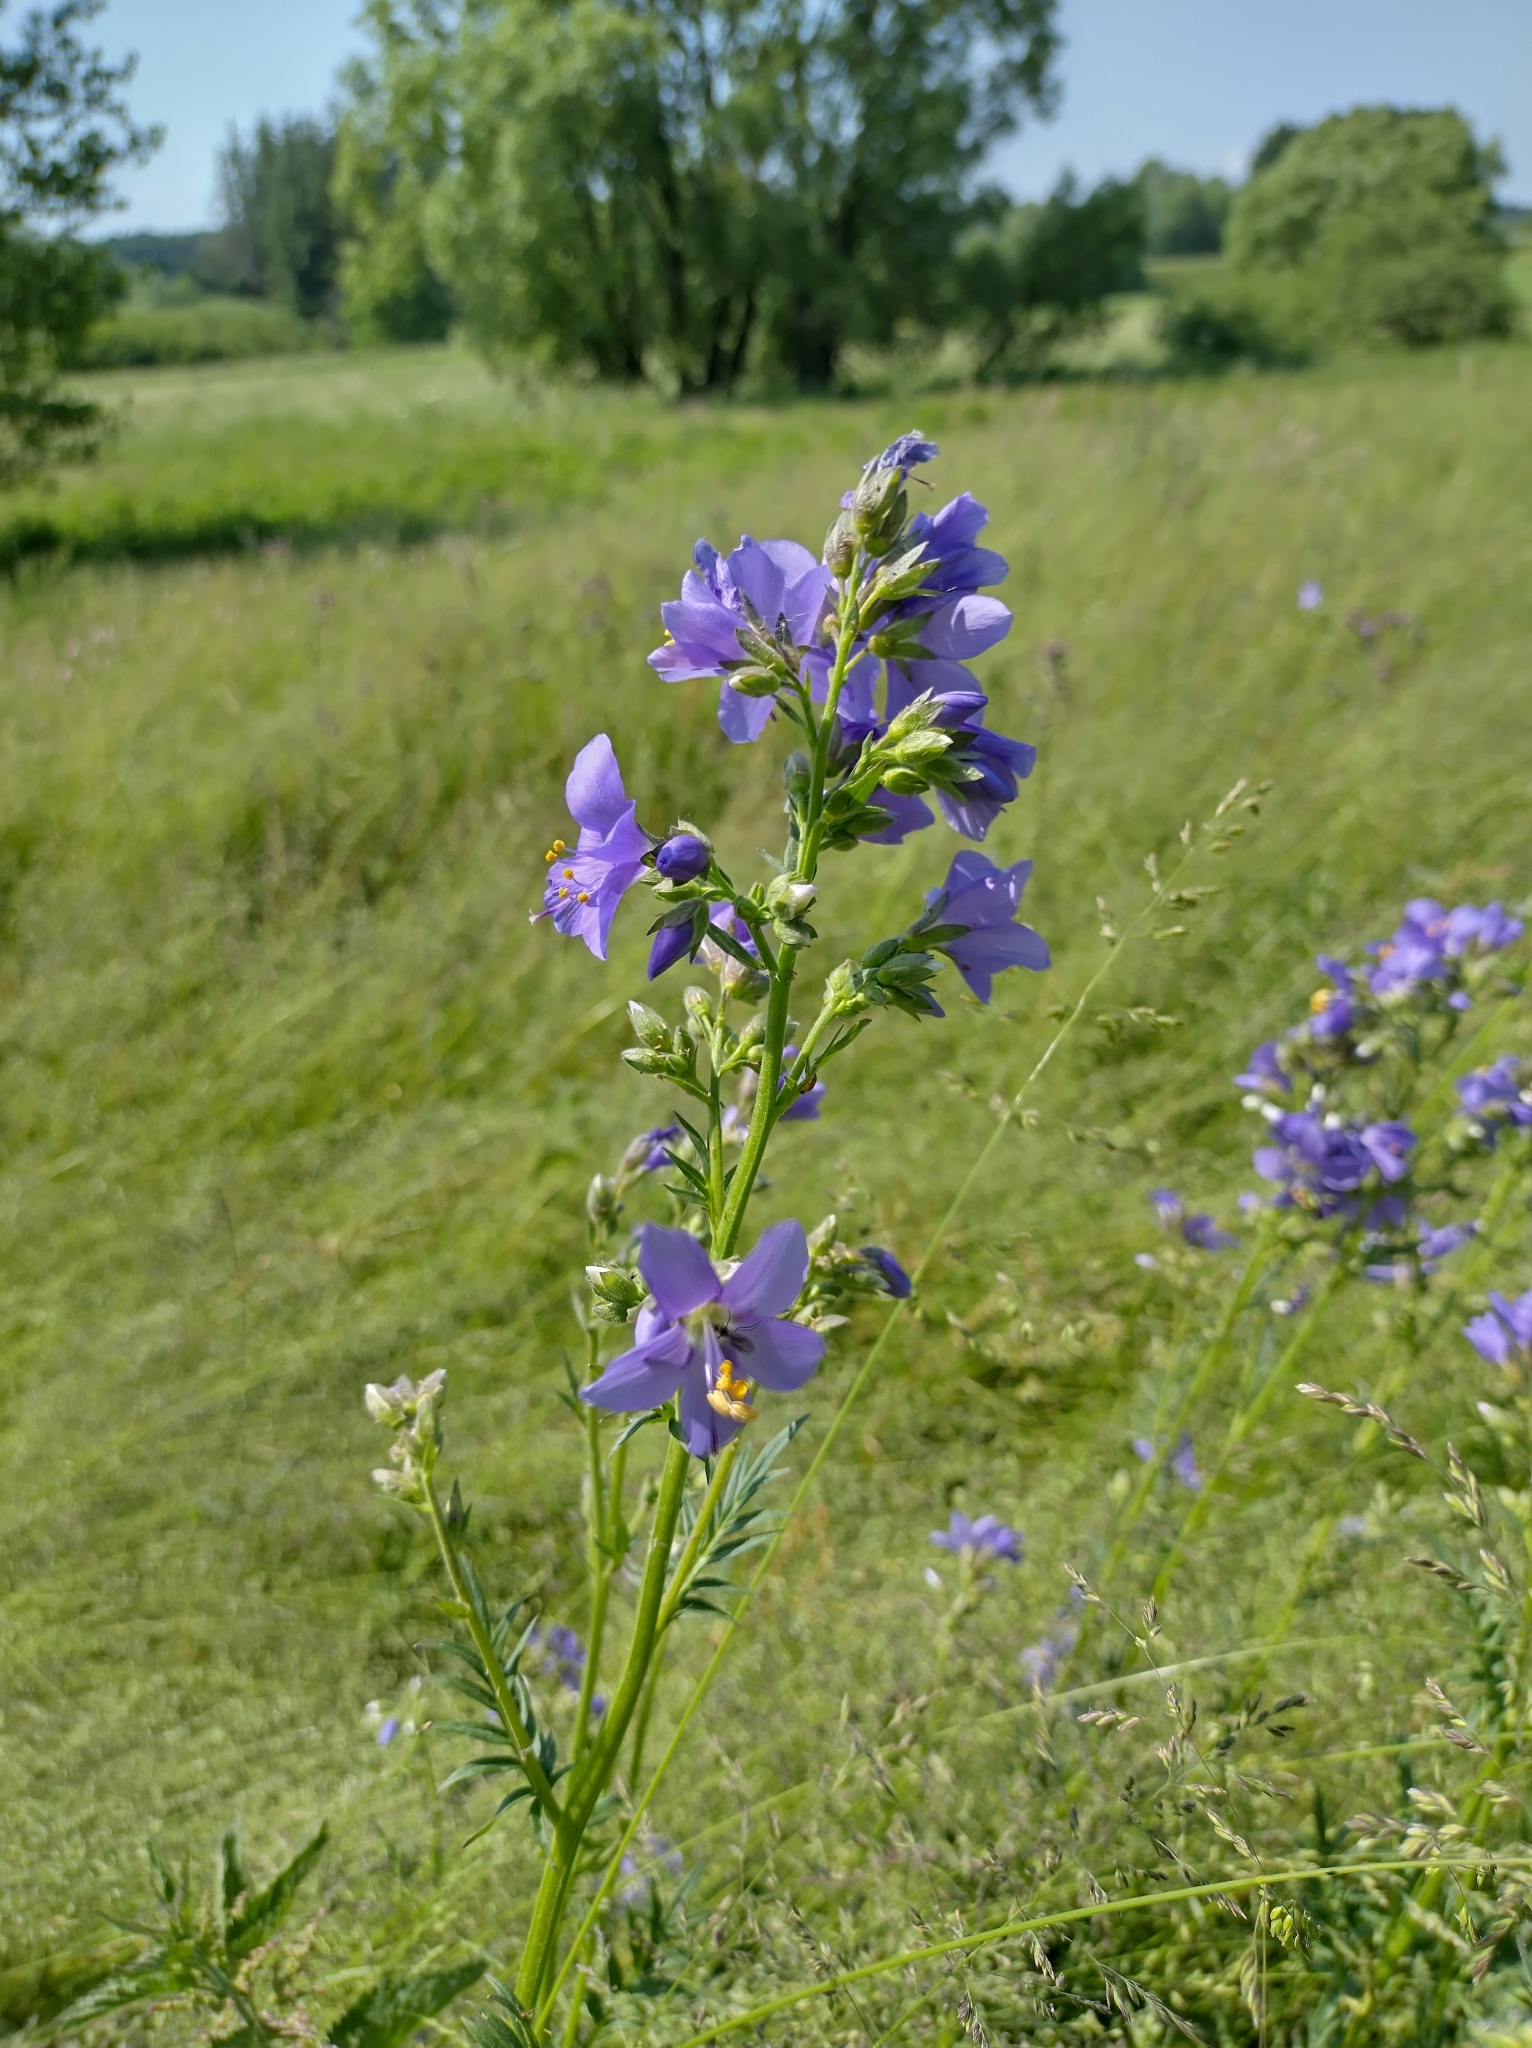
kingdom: Plantae
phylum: Tracheophyta
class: Magnoliopsida
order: Ericales
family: Polemoniaceae
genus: Polemonium
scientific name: Polemonium caeruleum
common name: Jacob's-ladder
